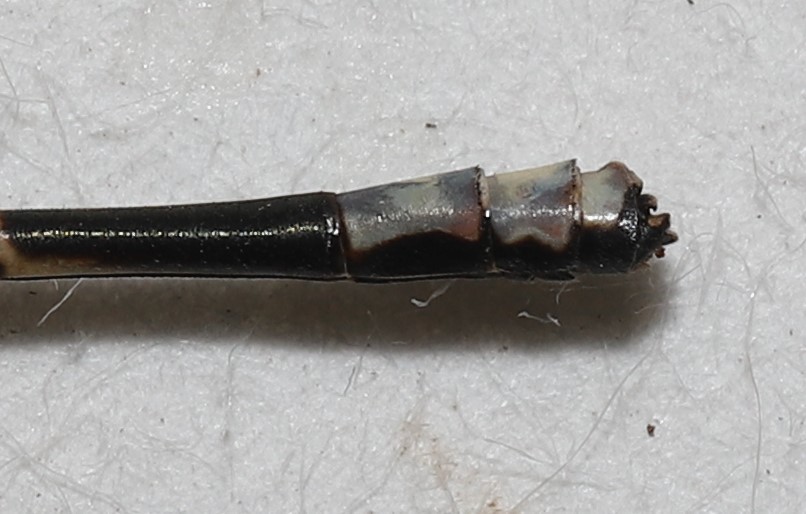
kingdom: Animalia
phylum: Arthropoda
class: Insecta
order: Odonata
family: Coenagrionidae
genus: Argia
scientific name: Argia apicalis
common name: Blue-fronted dancer
